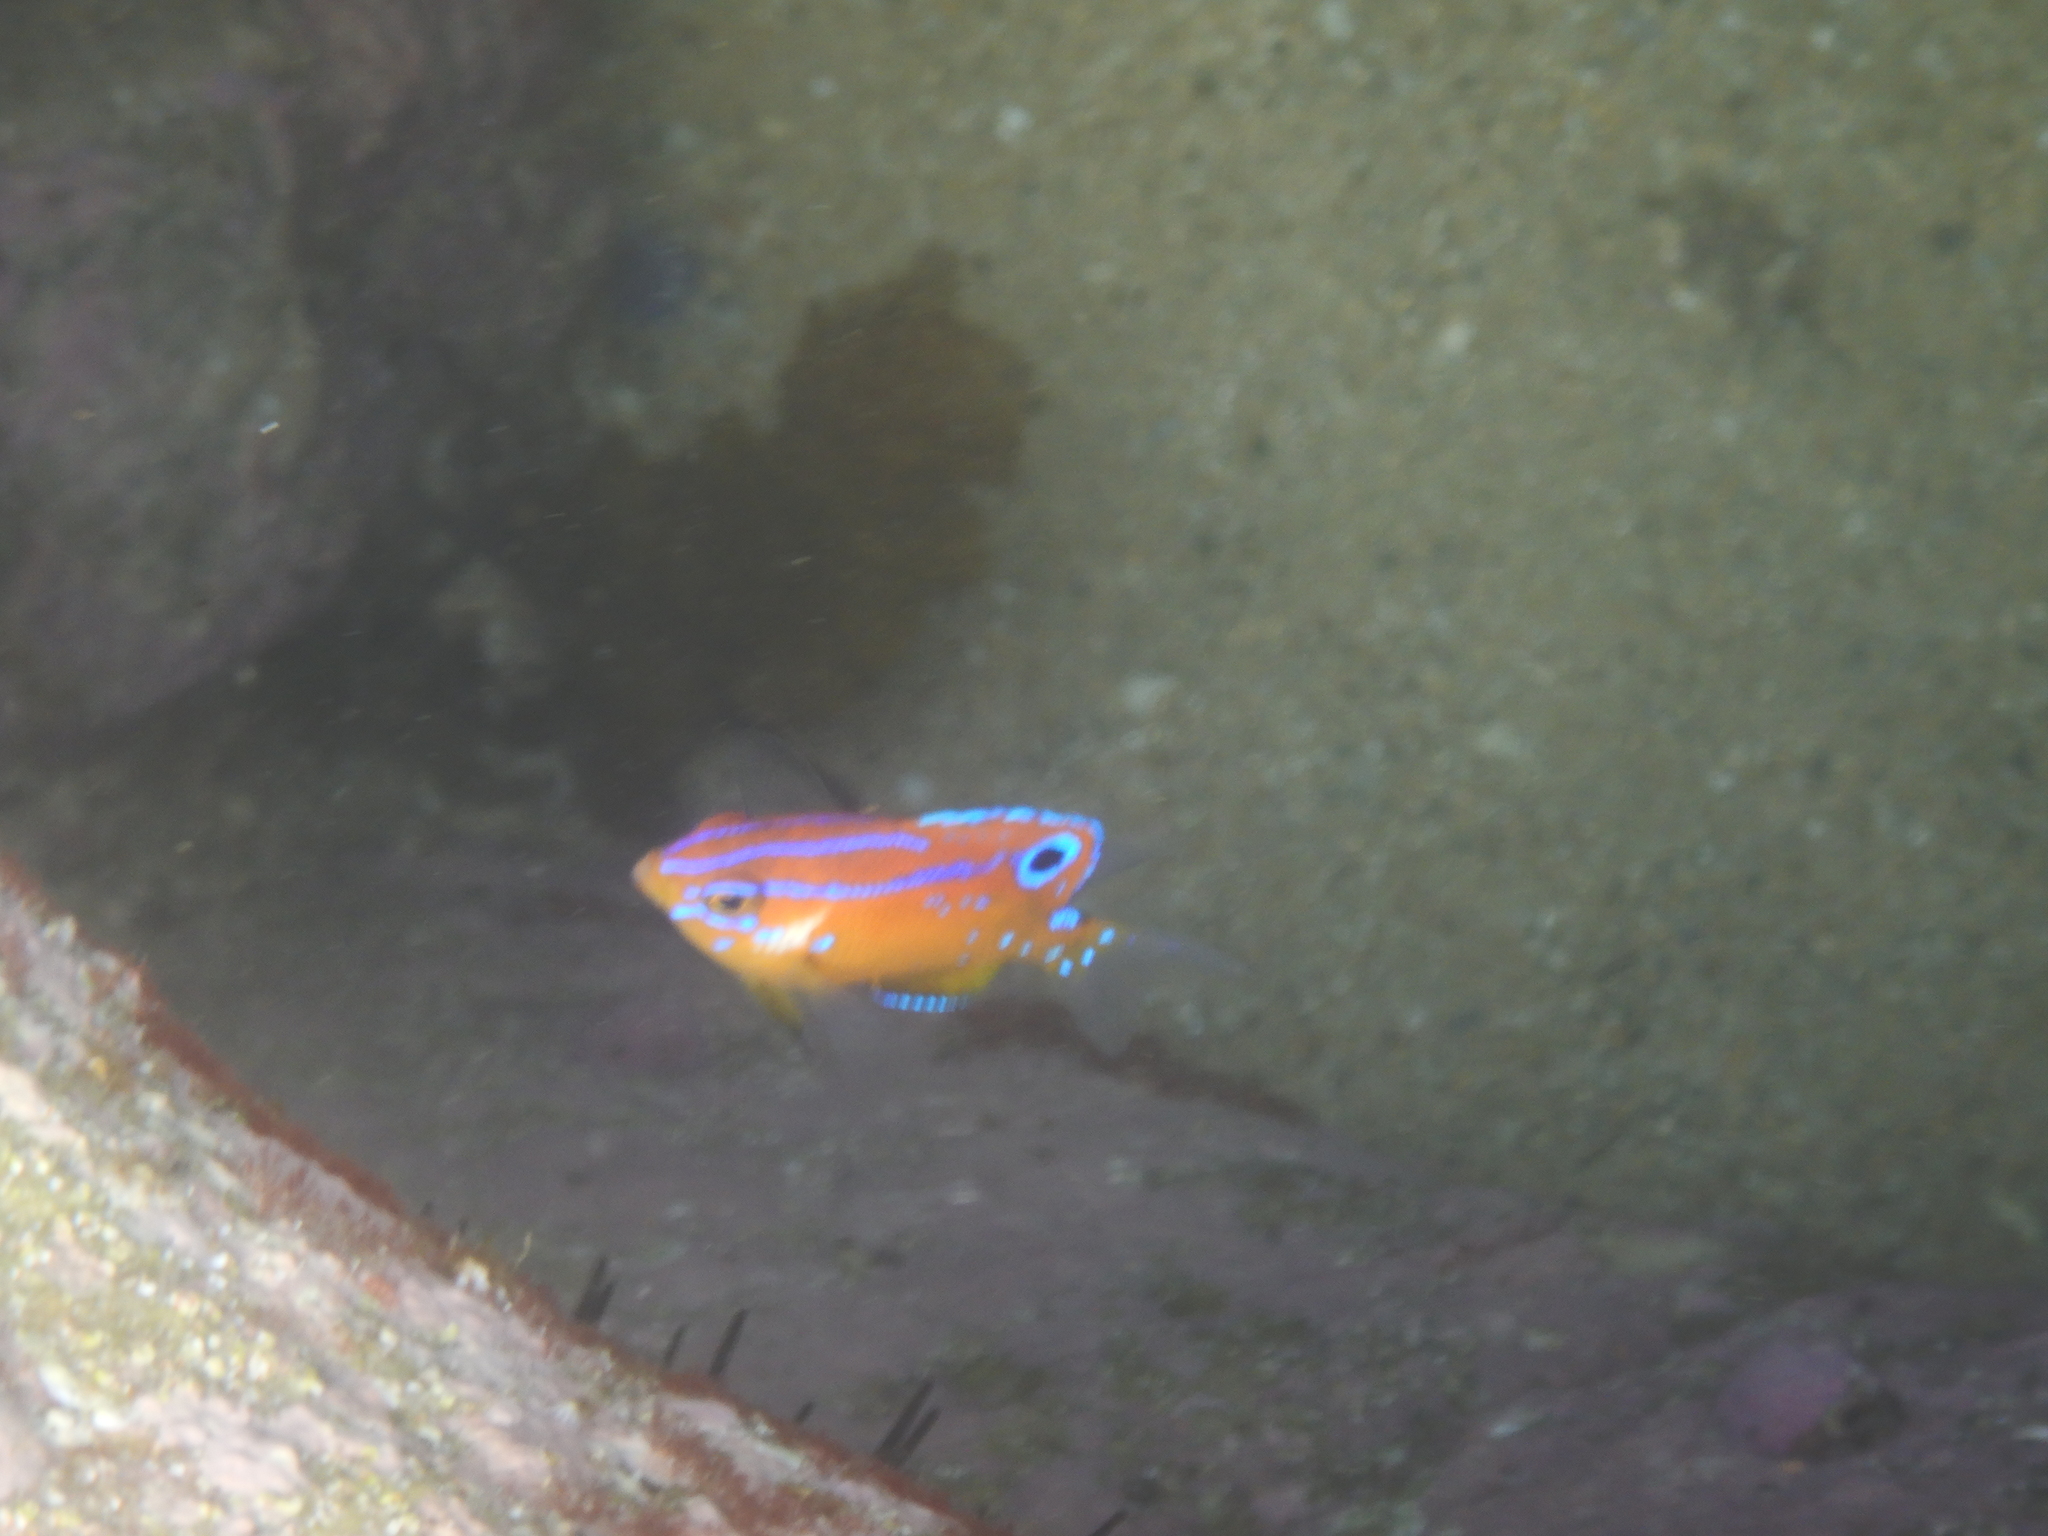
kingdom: Animalia
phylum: Chordata
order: Perciformes
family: Pomacentridae
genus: Parma
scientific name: Parma microlepis
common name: White-ear
